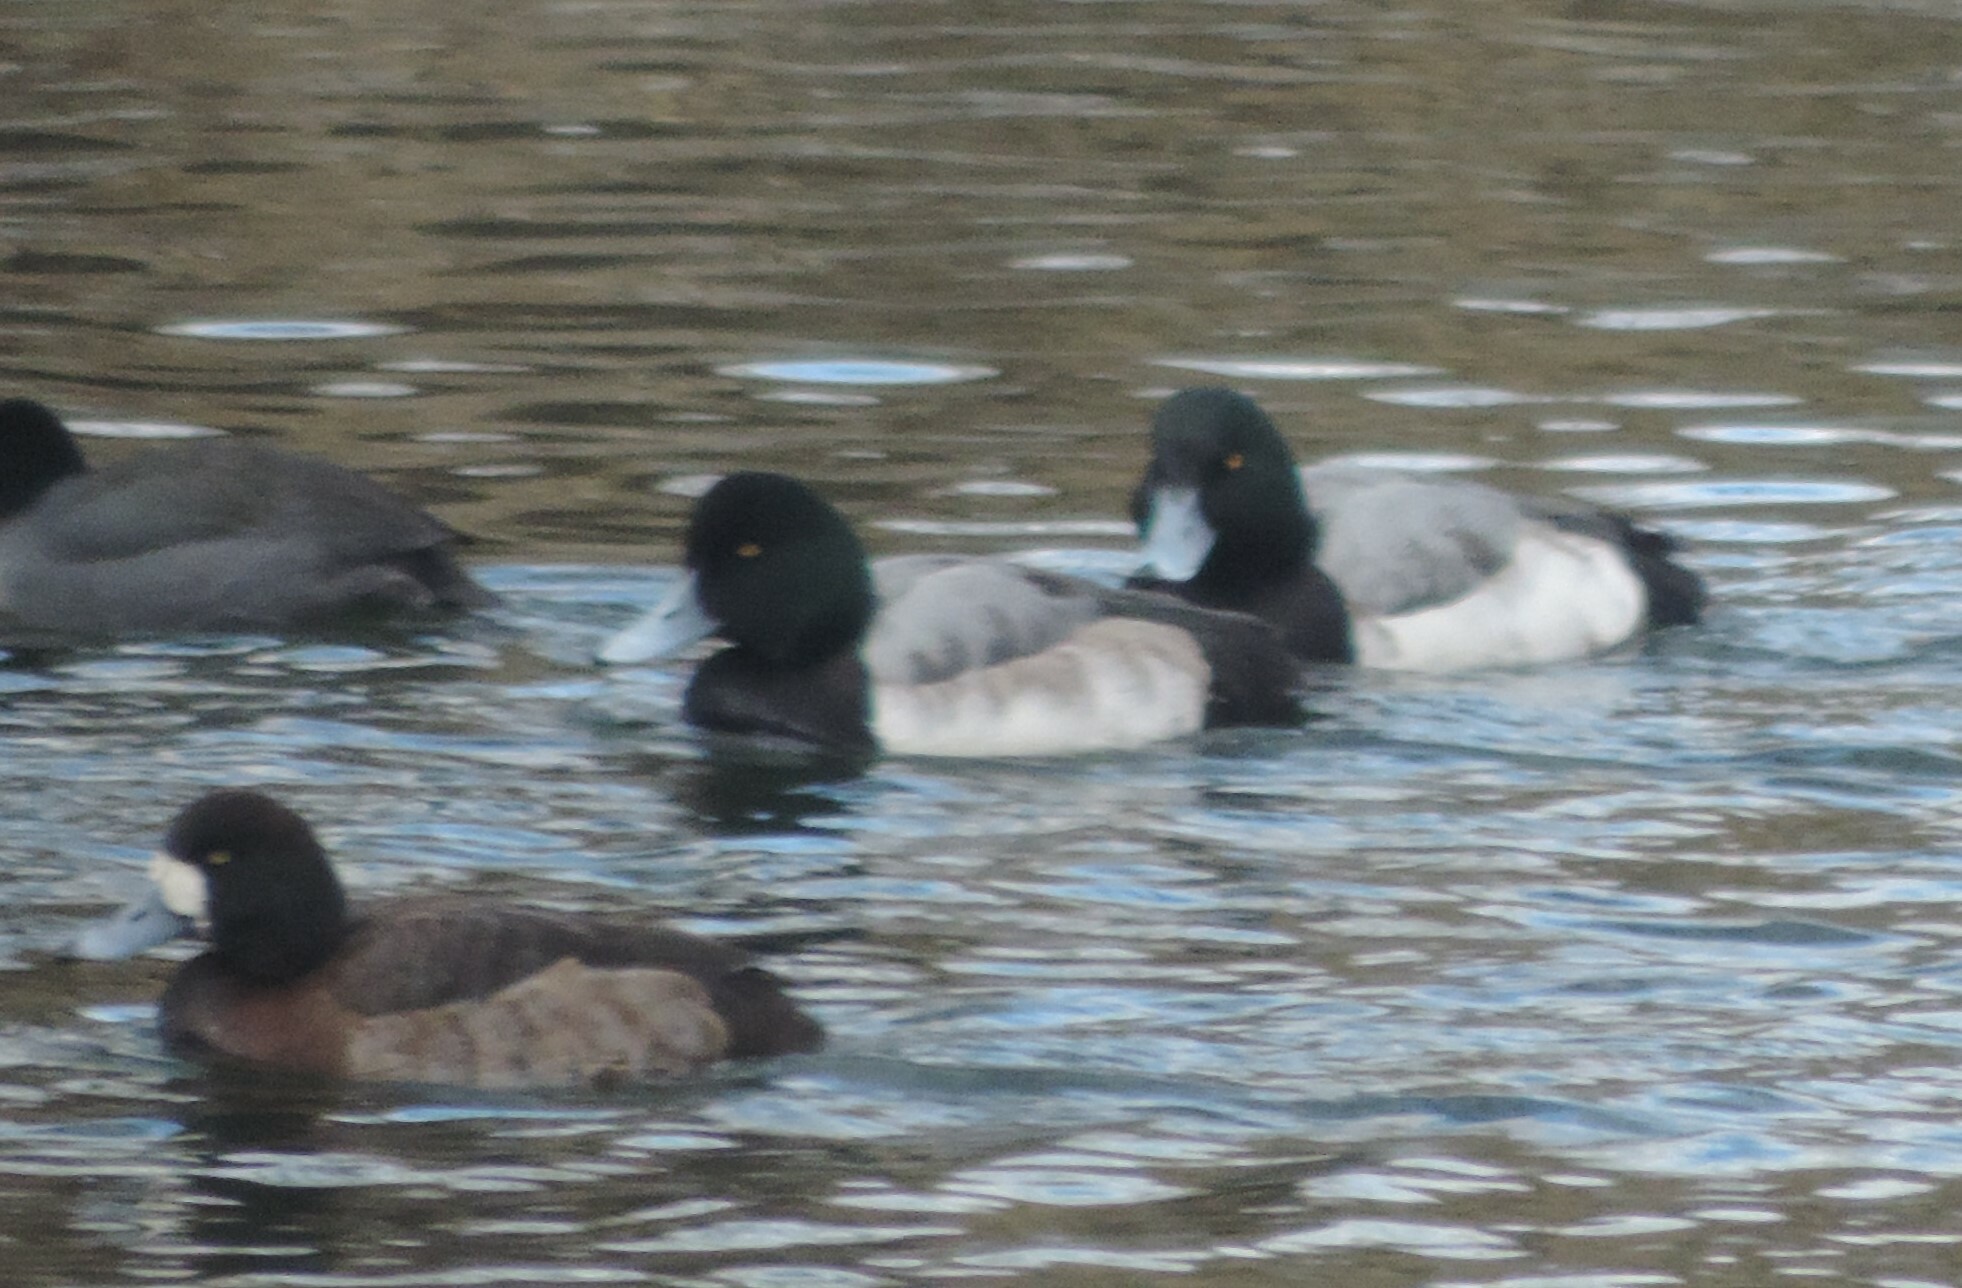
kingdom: Animalia
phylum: Chordata
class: Aves
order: Anseriformes
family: Anatidae
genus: Aythya
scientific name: Aythya marila
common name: Greater scaup
